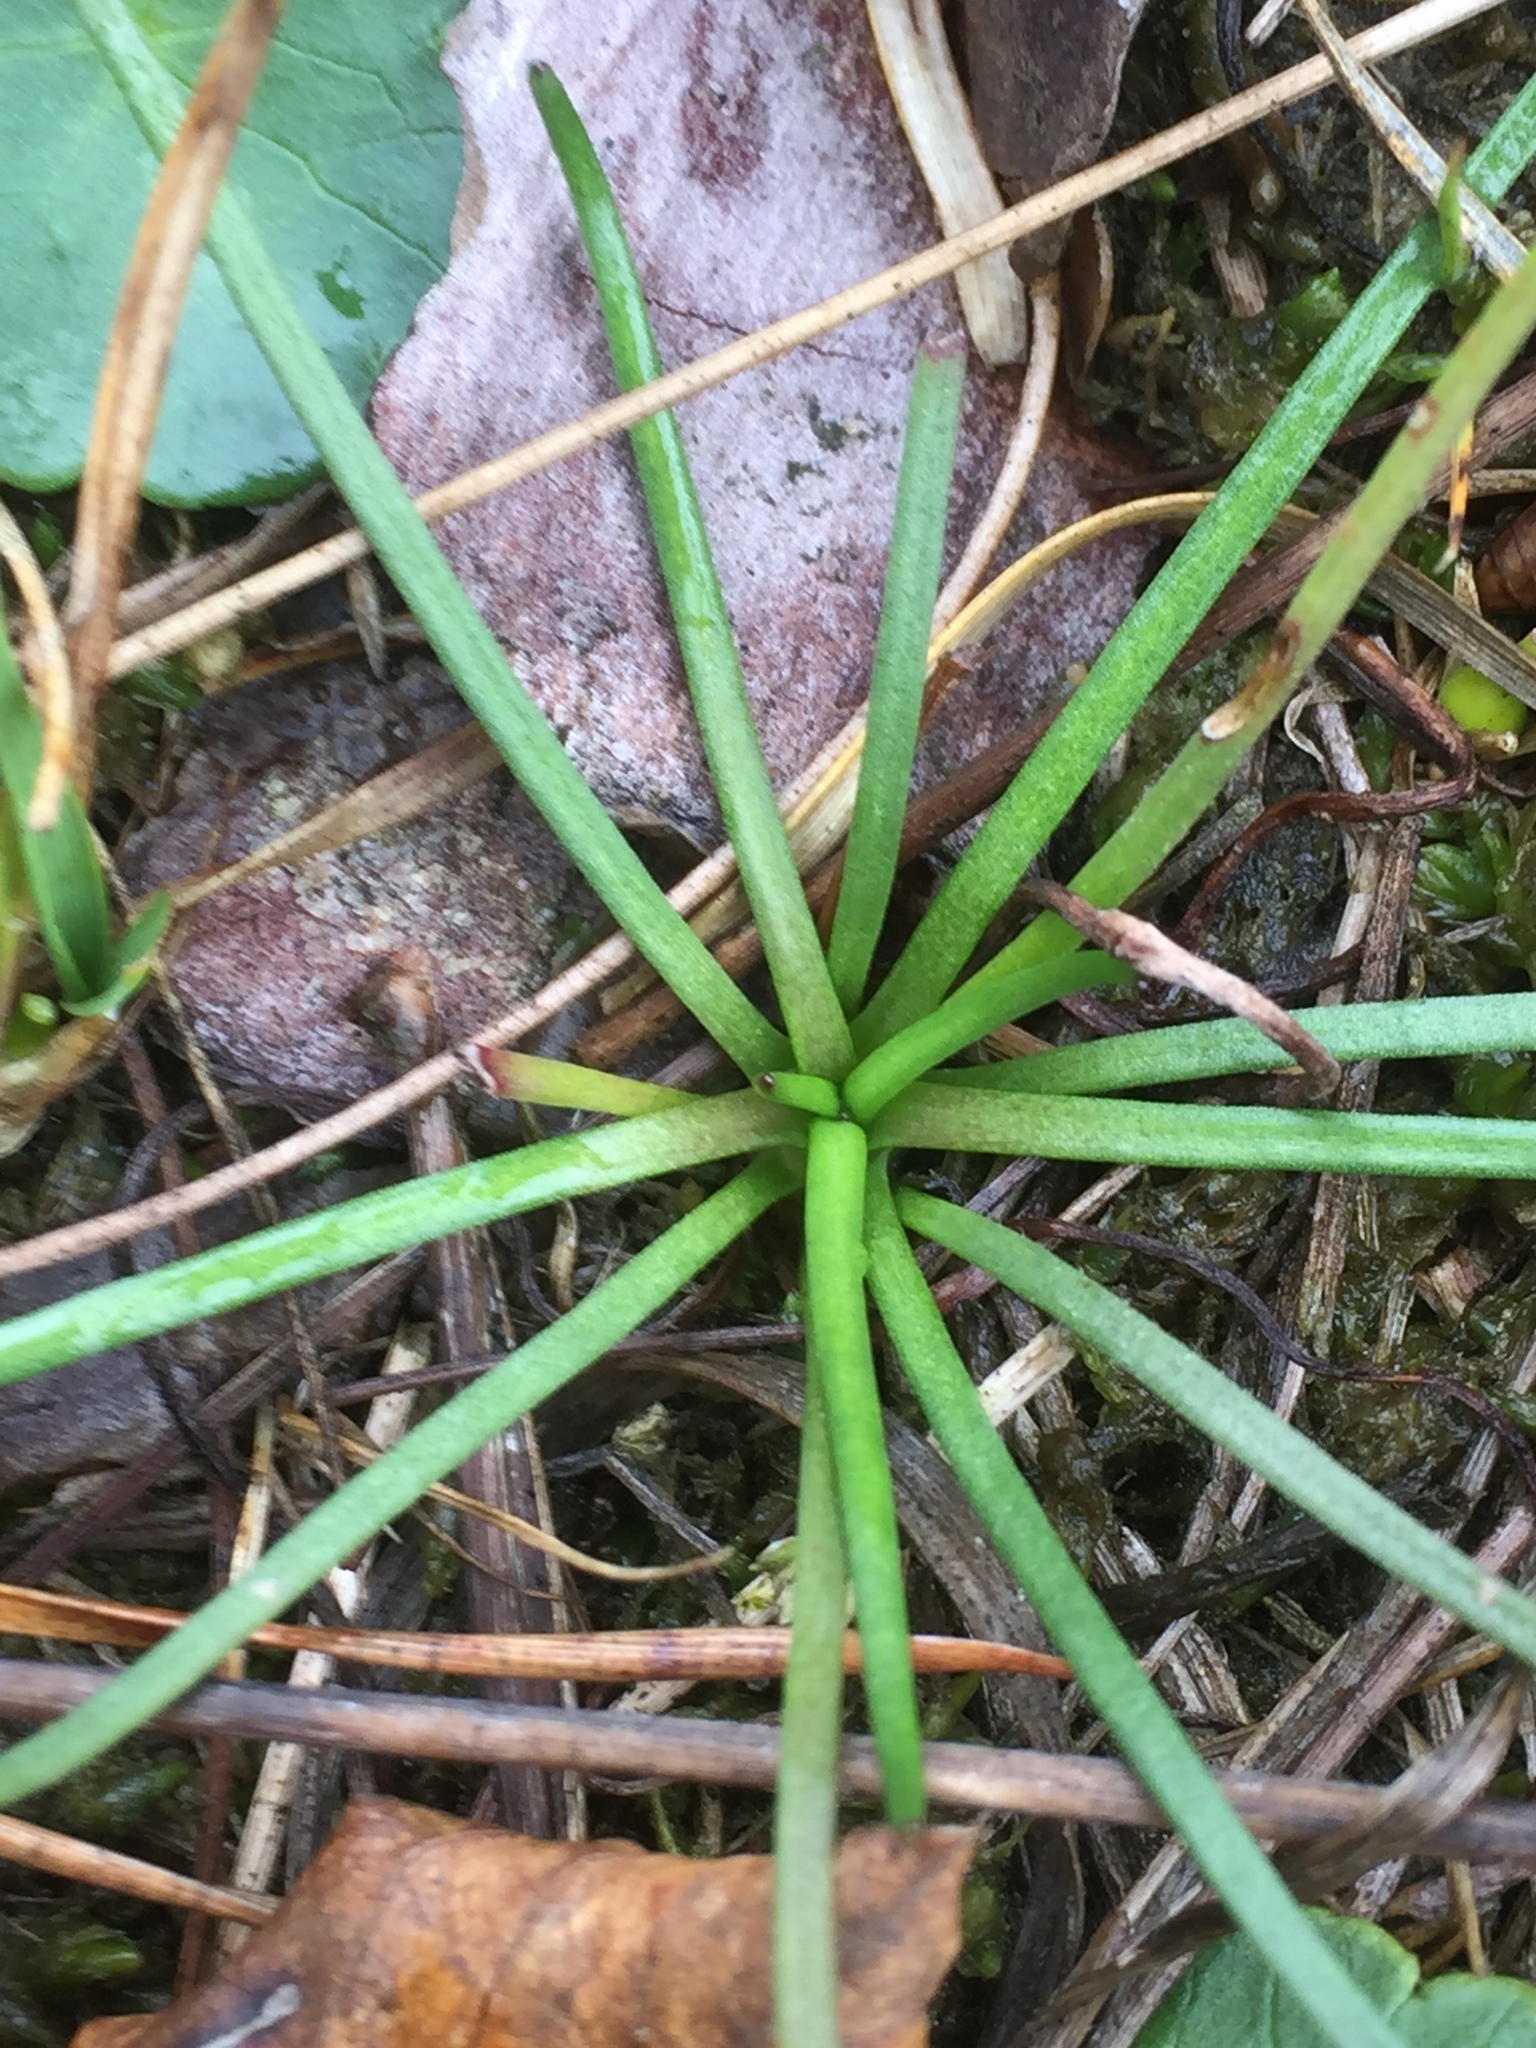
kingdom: Plantae
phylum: Tracheophyta
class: Magnoliopsida
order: Lamiales
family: Plantaginaceae
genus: Littorella
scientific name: Littorella uniflora
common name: Shoreweed
